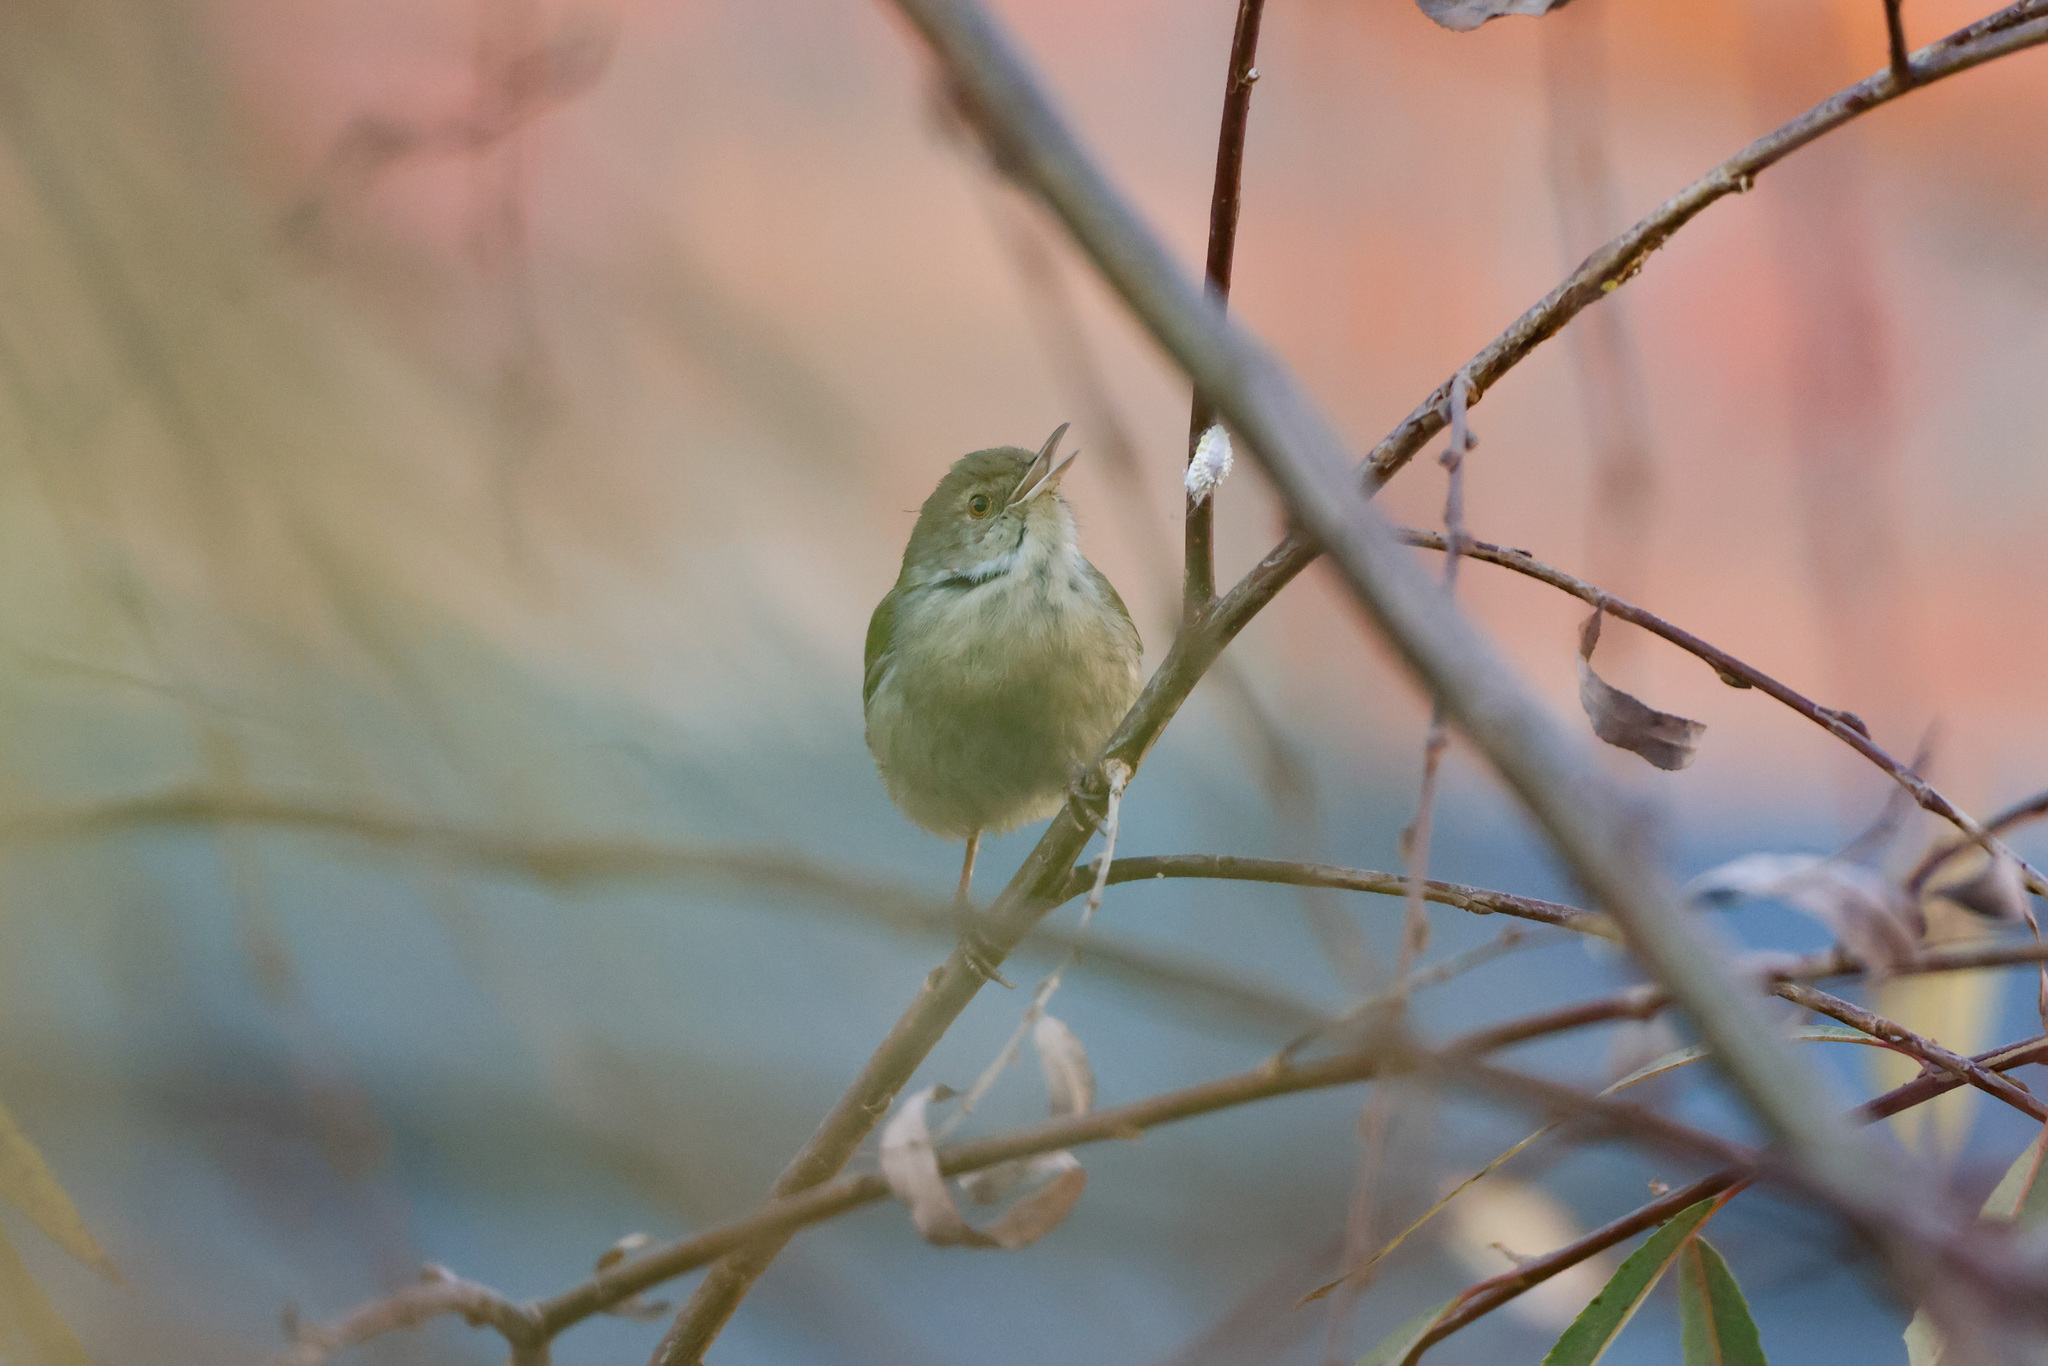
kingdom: Animalia
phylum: Chordata
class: Aves
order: Passeriformes
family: Cisticolidae
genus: Orthotomus
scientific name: Orthotomus sutorius
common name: Common tailorbird
